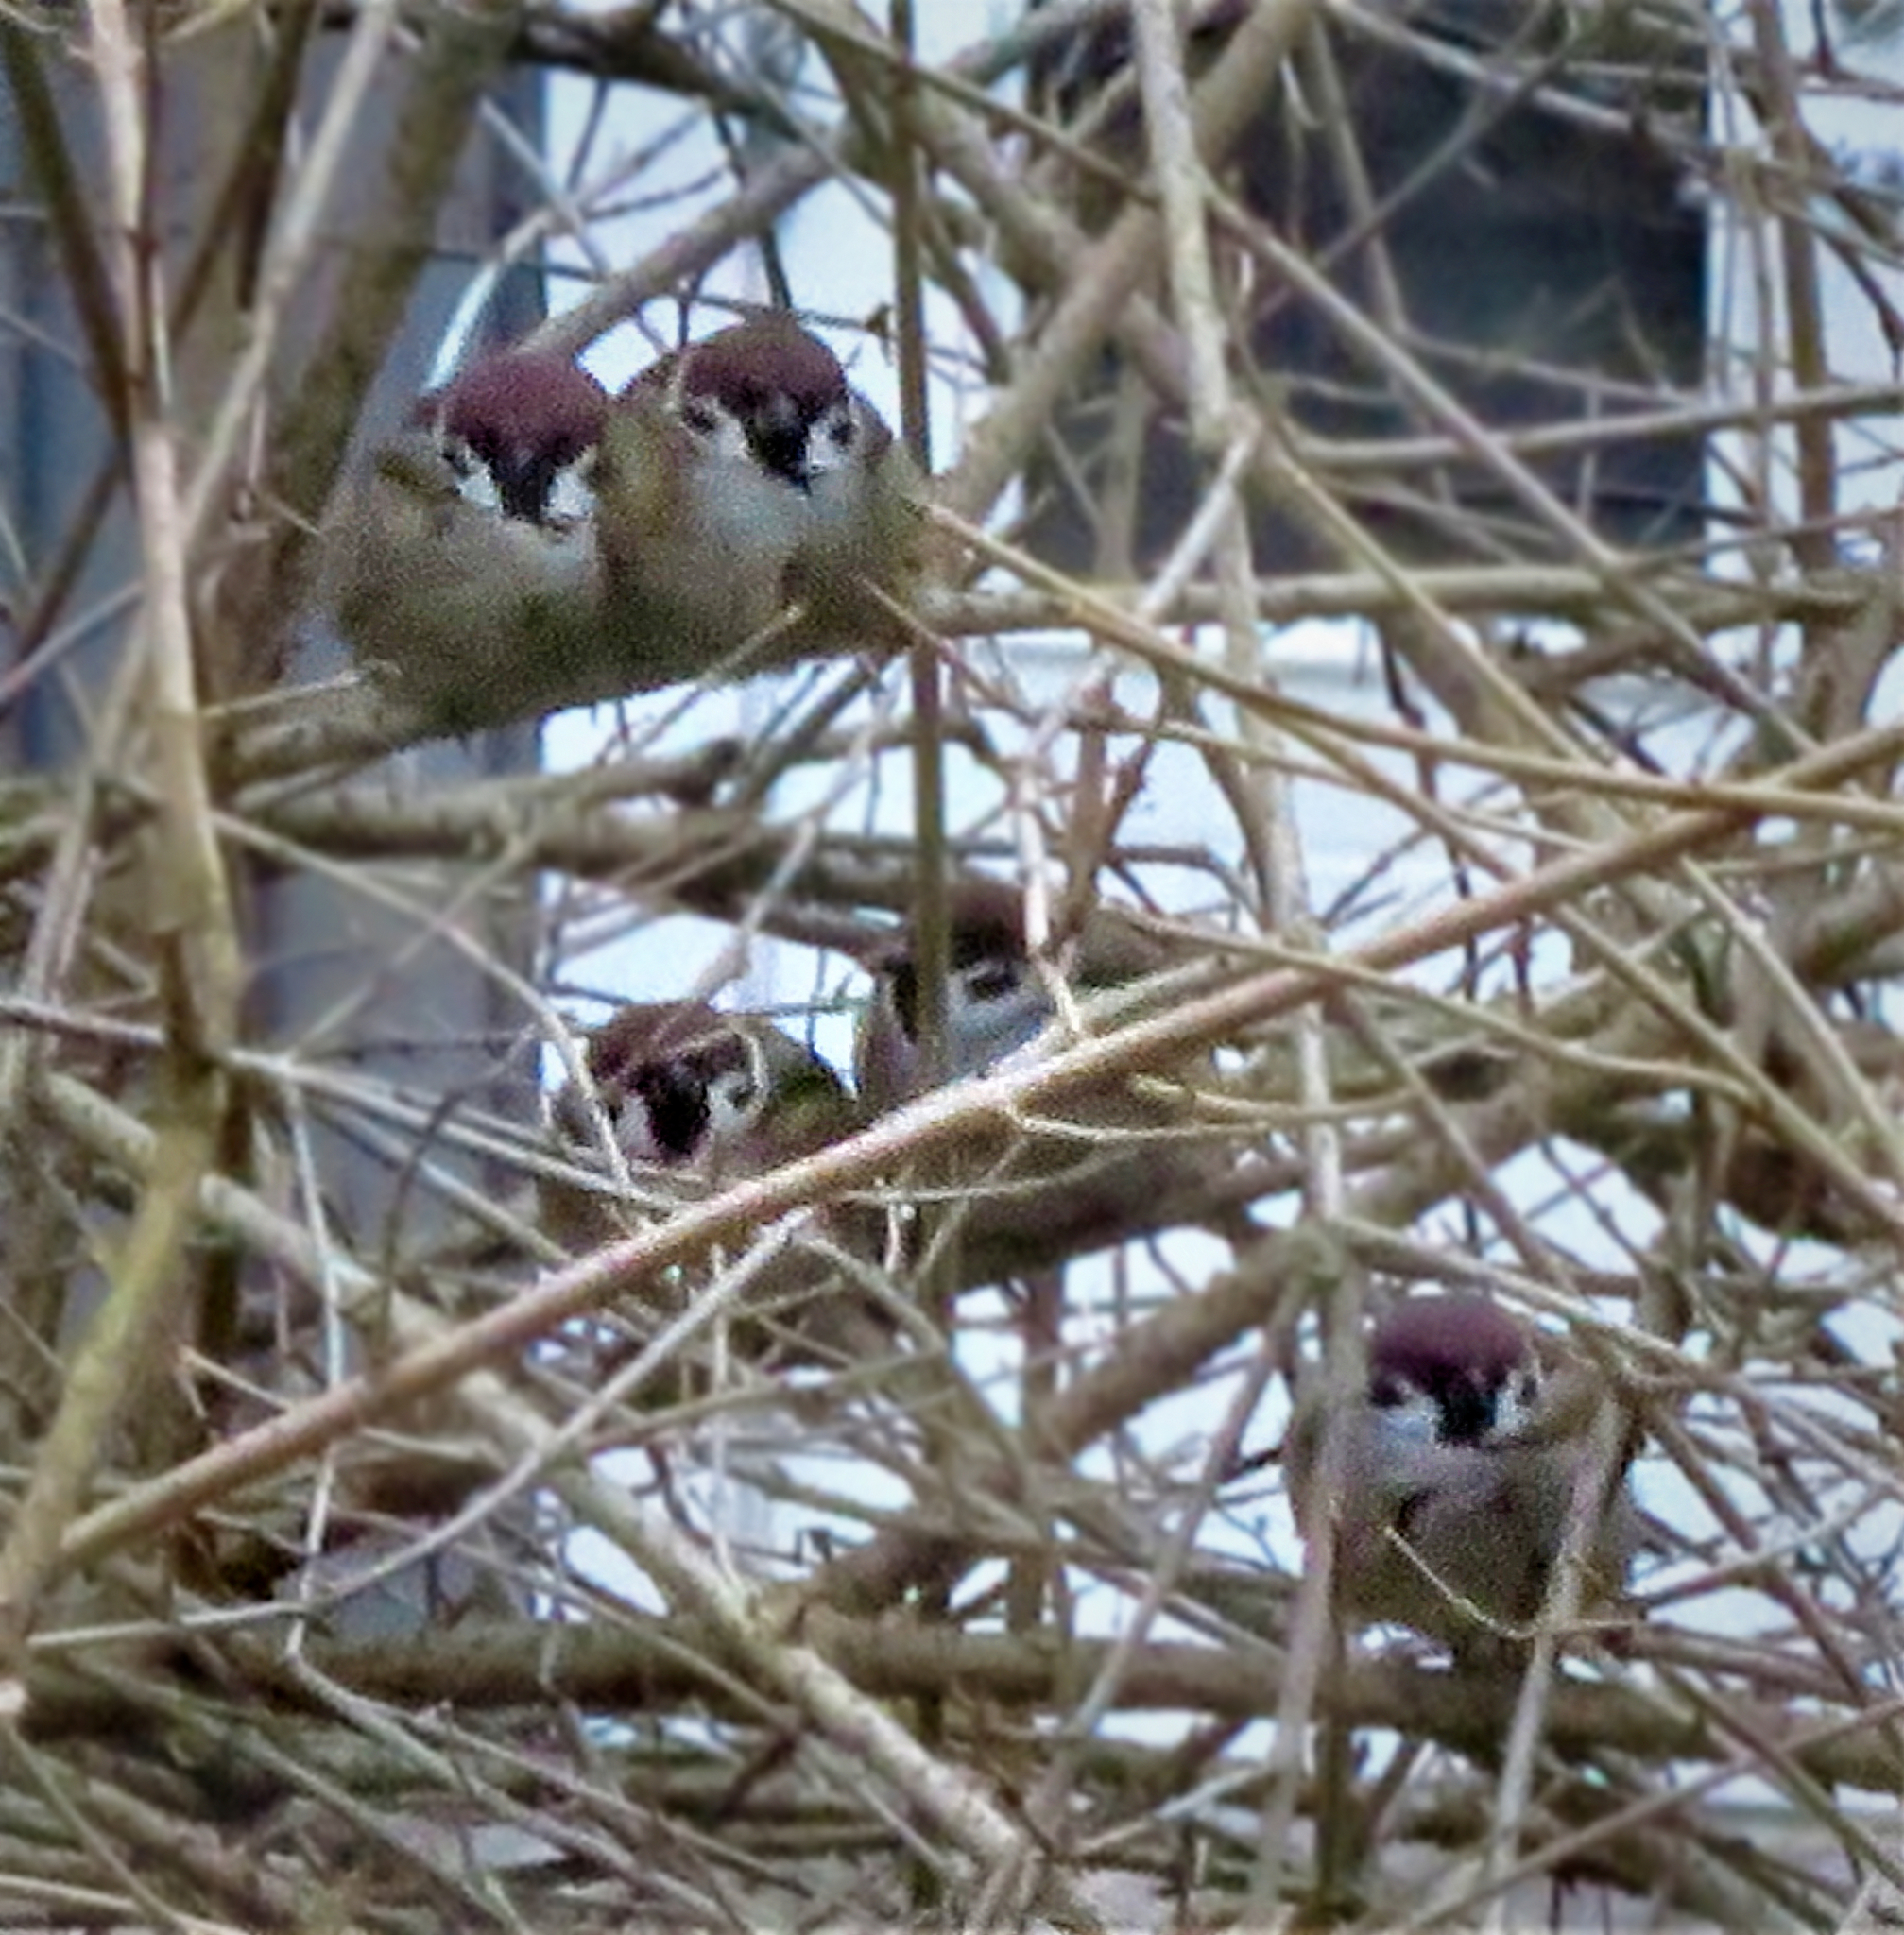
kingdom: Animalia
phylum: Chordata
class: Aves
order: Passeriformes
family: Passeridae
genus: Passer
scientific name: Passer montanus
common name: Eurasian tree sparrow
